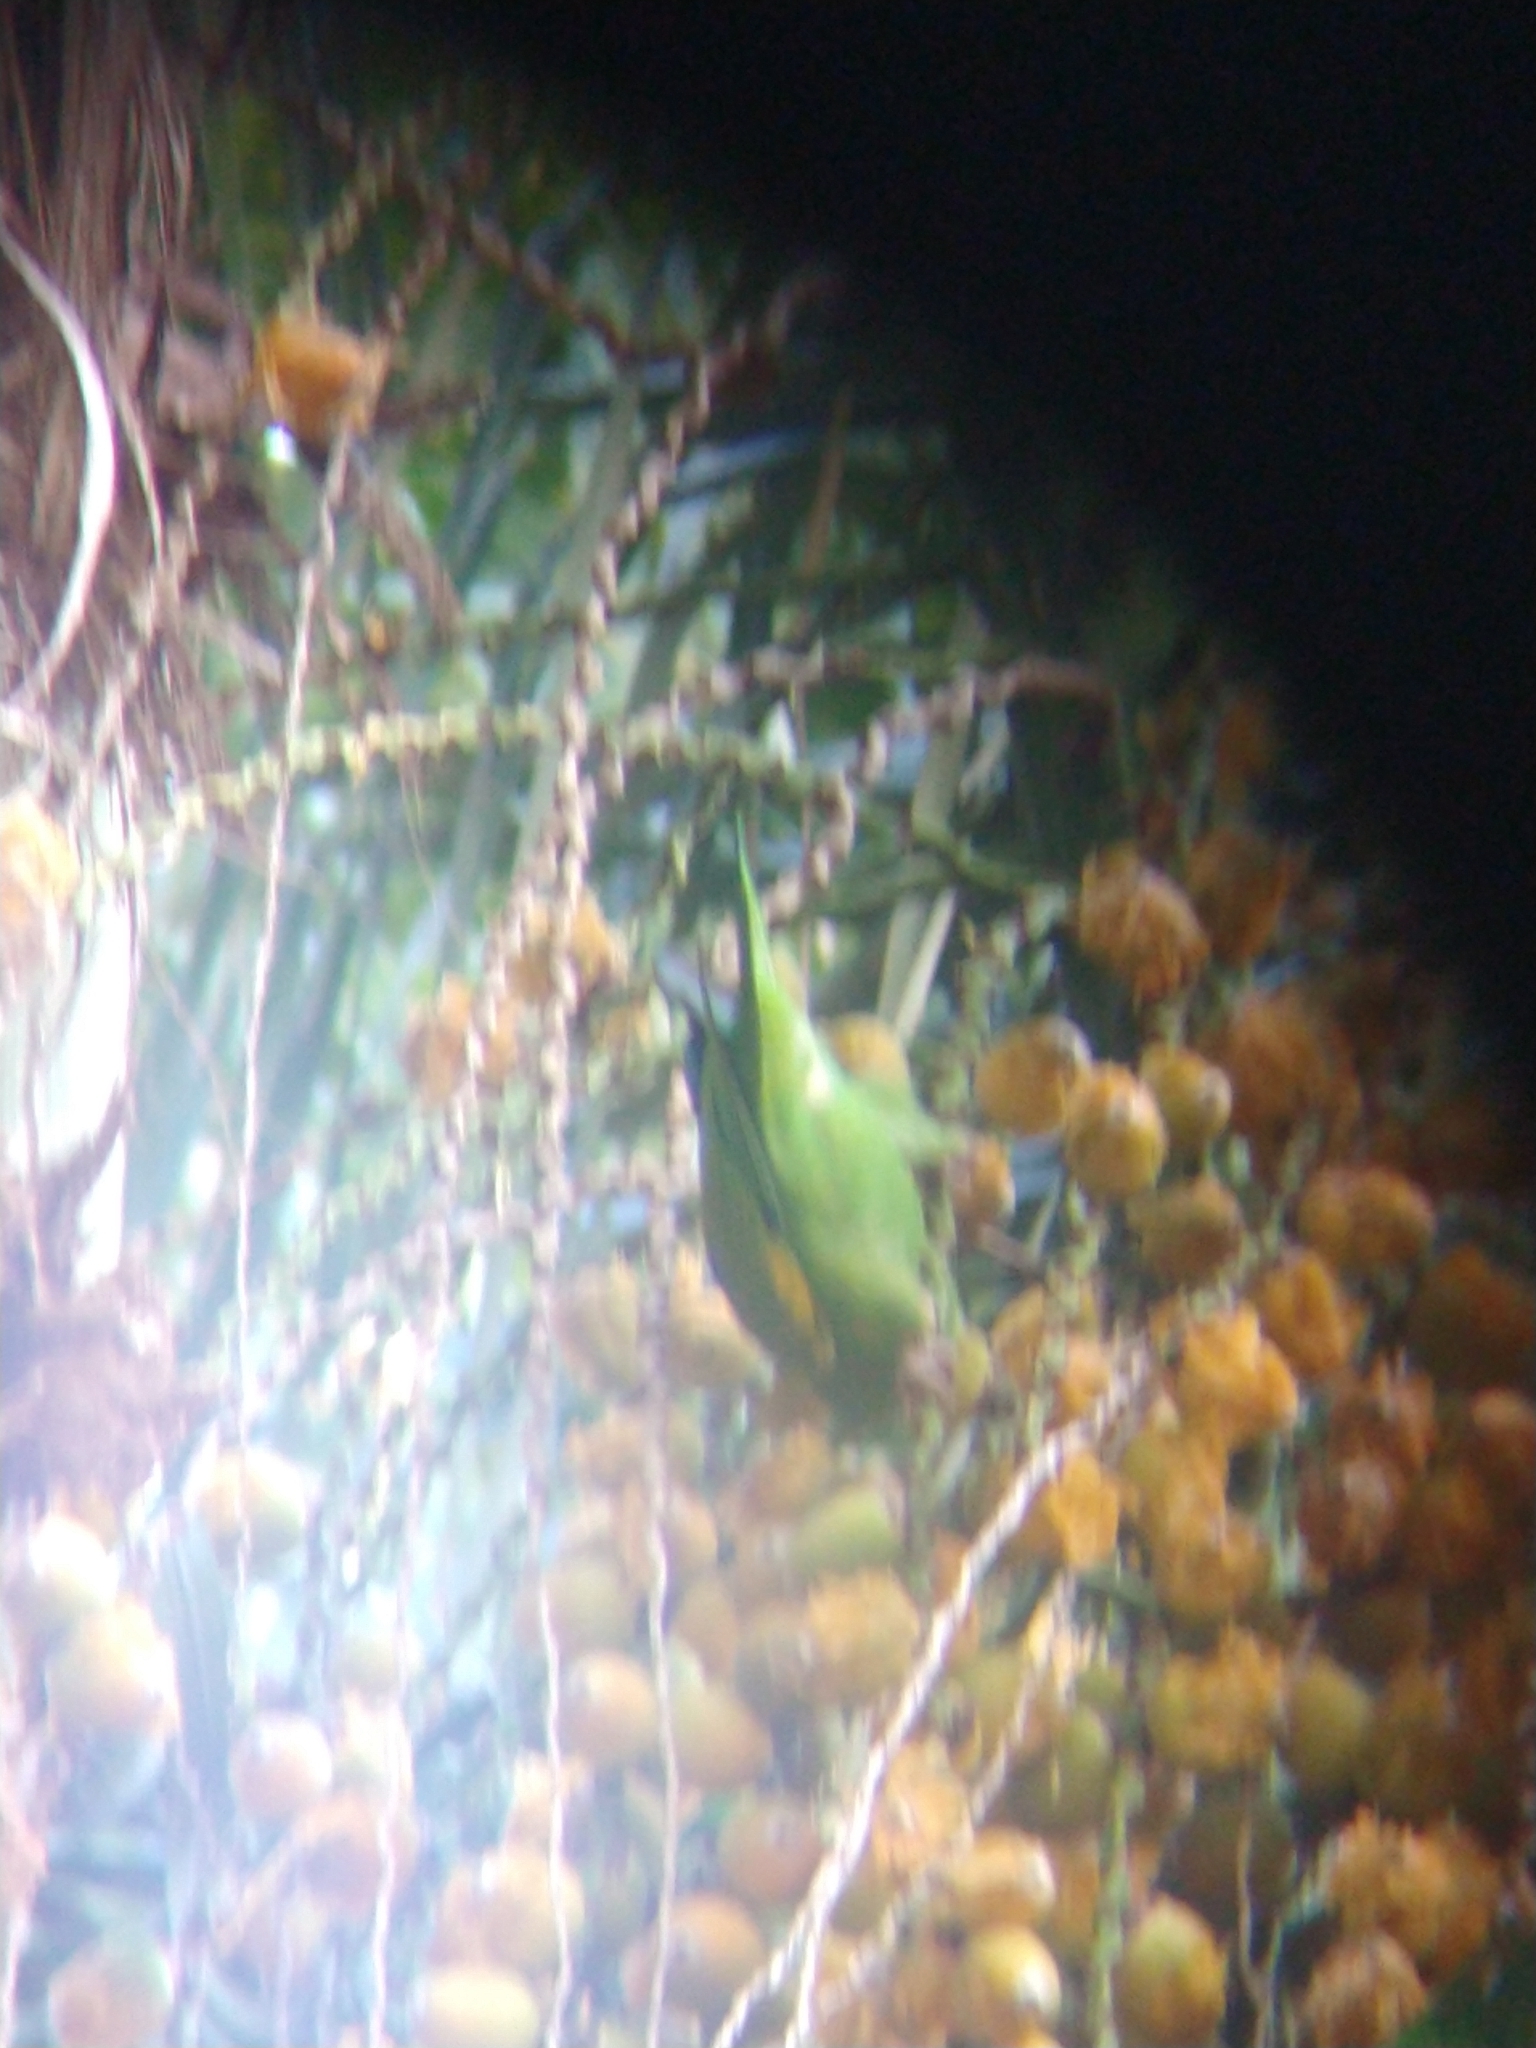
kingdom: Animalia
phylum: Chordata
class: Aves
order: Psittaciformes
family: Psittacidae
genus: Brotogeris
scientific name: Brotogeris chiriri
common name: Yellow-chevroned parakeet
